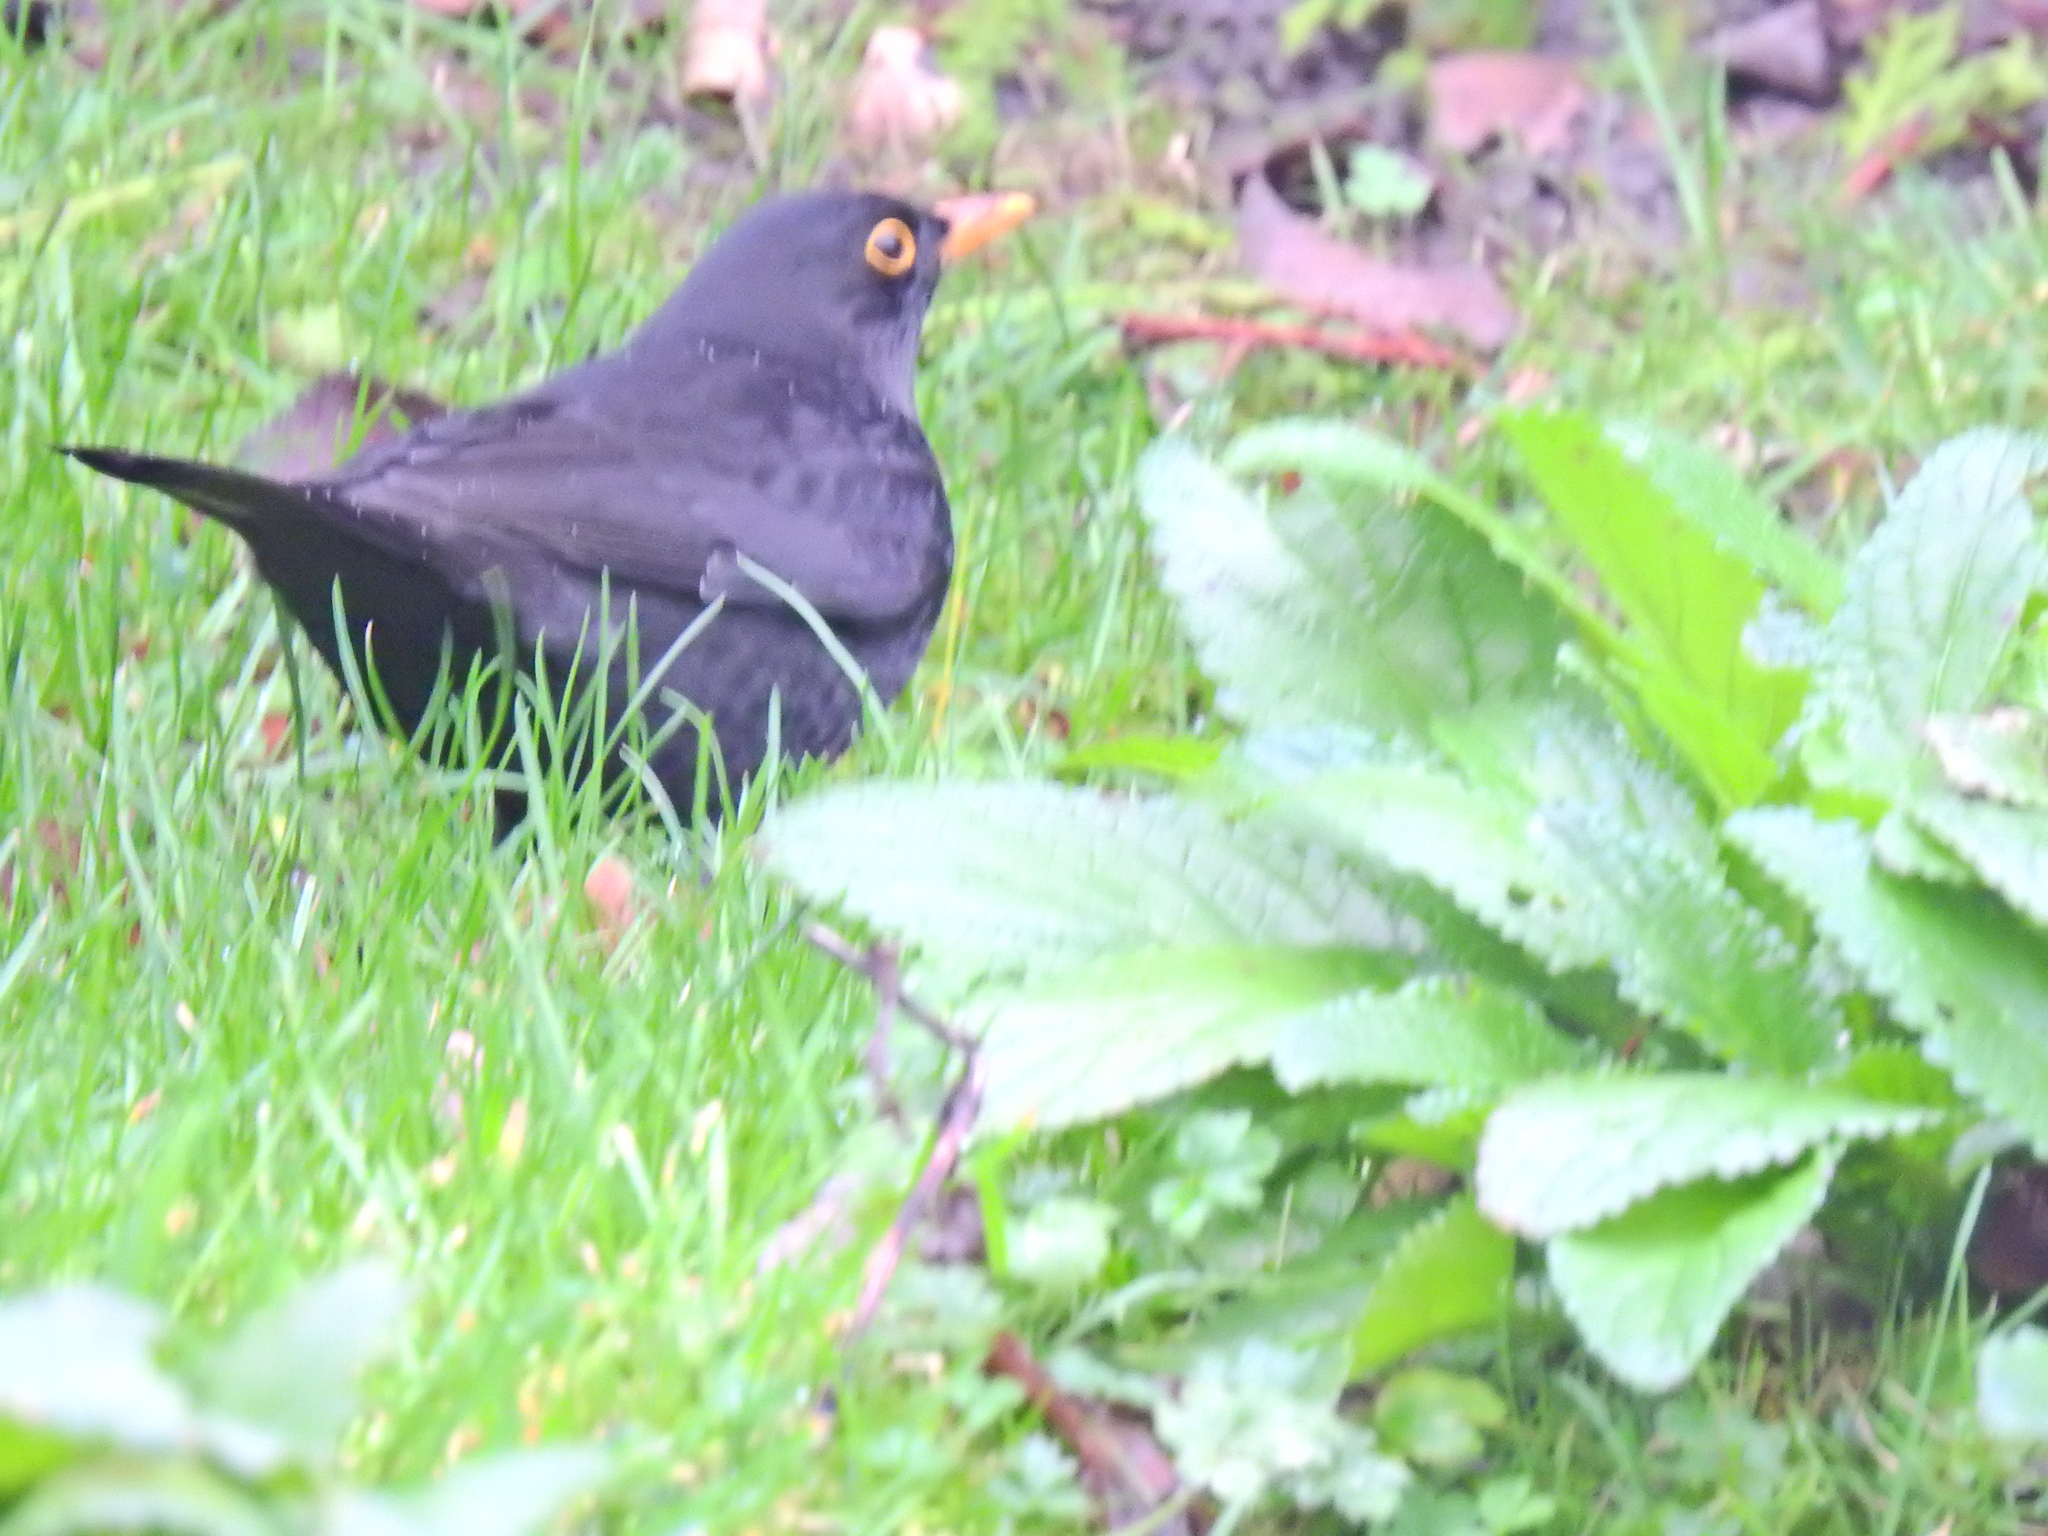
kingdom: Animalia
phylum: Chordata
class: Aves
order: Passeriformes
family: Turdidae
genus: Turdus
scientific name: Turdus merula
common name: Common blackbird
